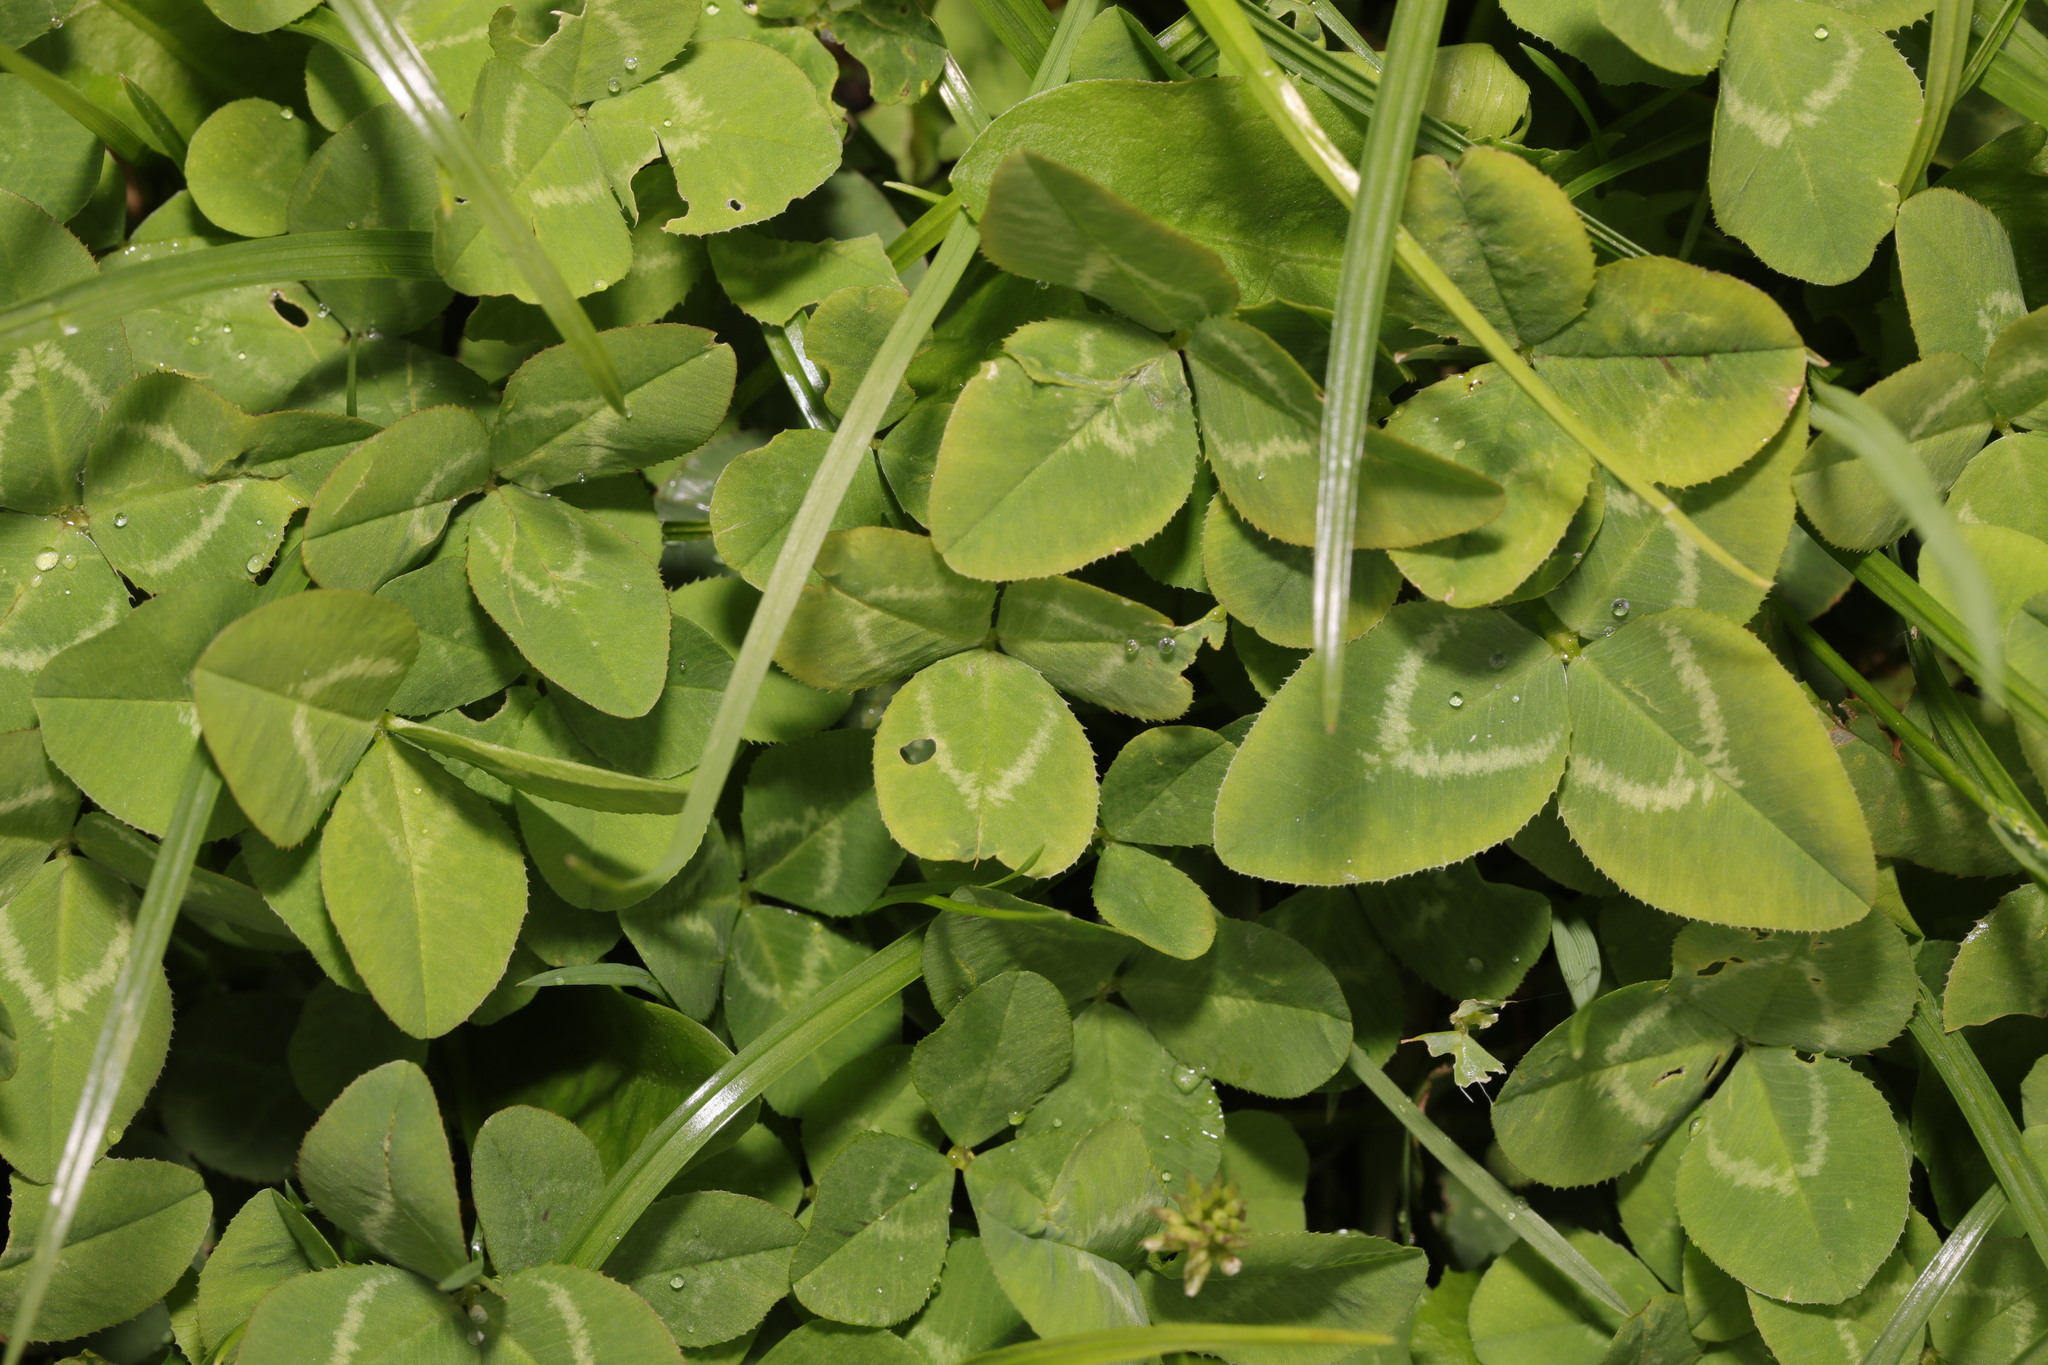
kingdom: Plantae
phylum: Tracheophyta
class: Magnoliopsida
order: Fabales
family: Fabaceae
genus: Trifolium
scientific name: Trifolium repens
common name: White clover
